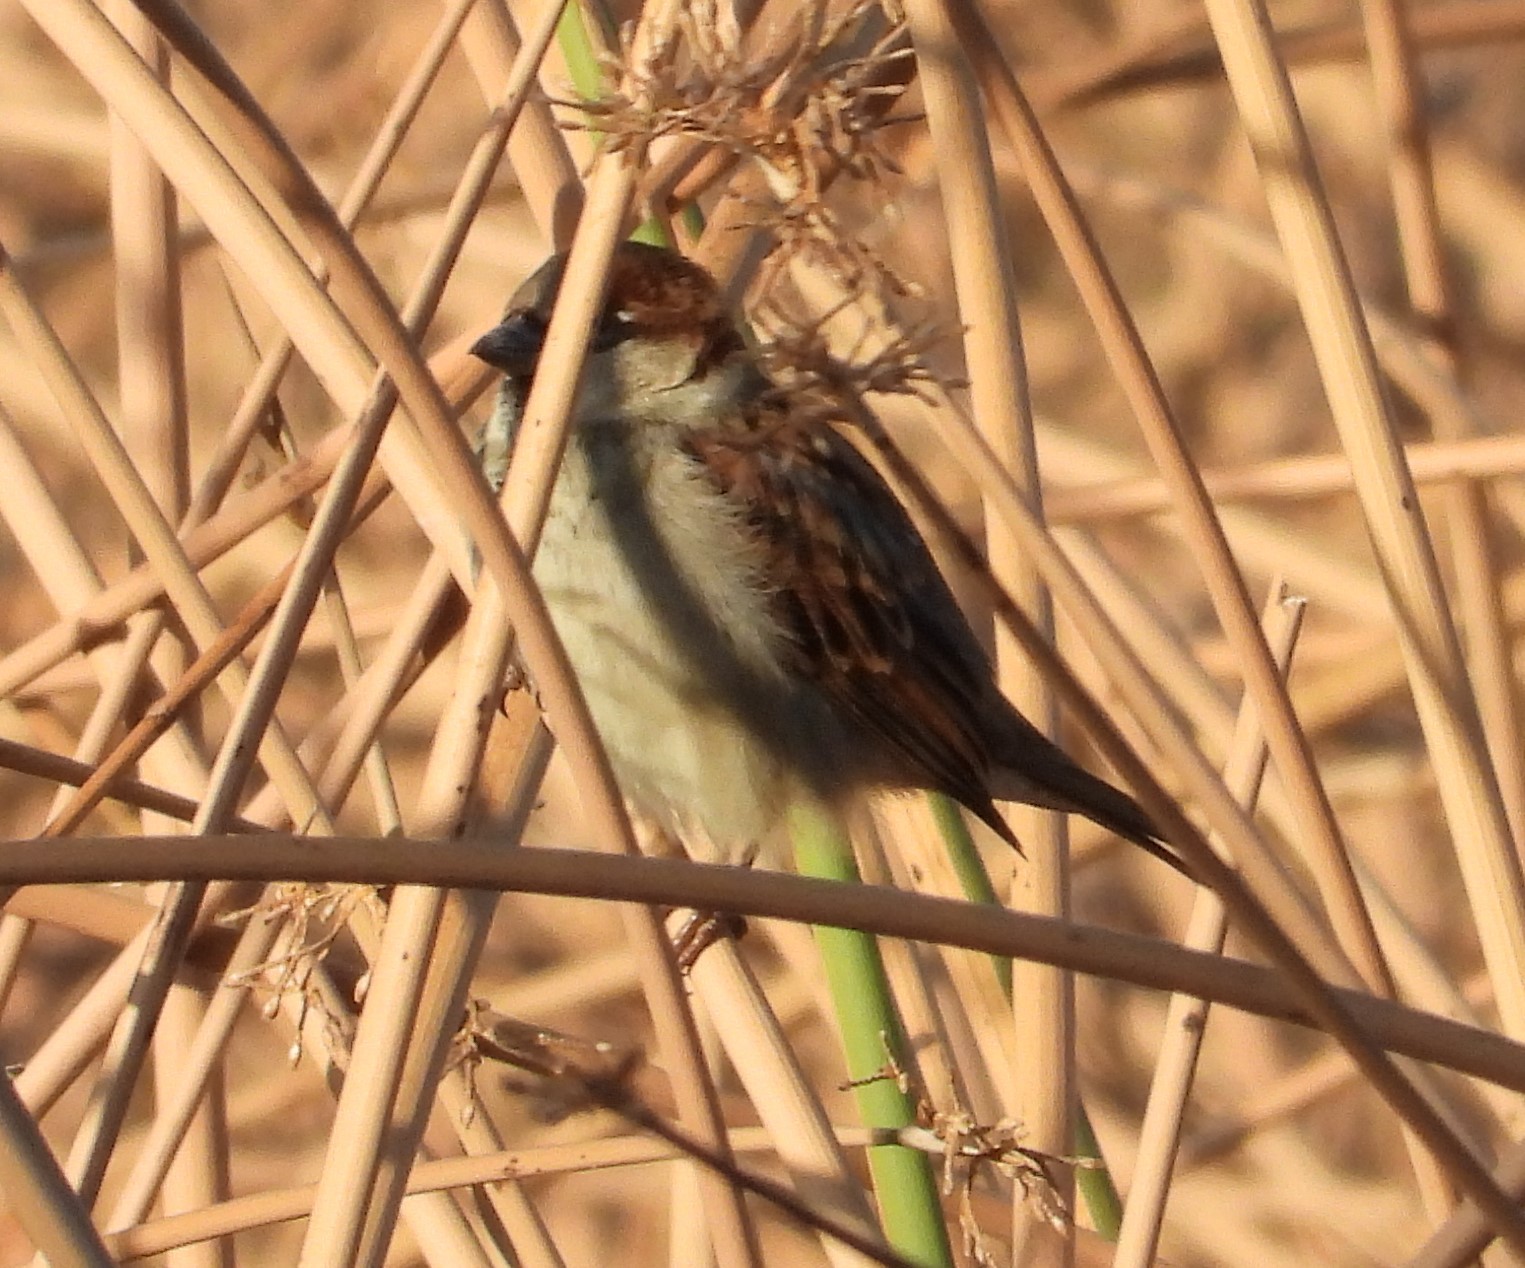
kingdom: Animalia
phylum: Chordata
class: Aves
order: Passeriformes
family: Passeridae
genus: Passer
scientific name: Passer domesticus
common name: House sparrow
